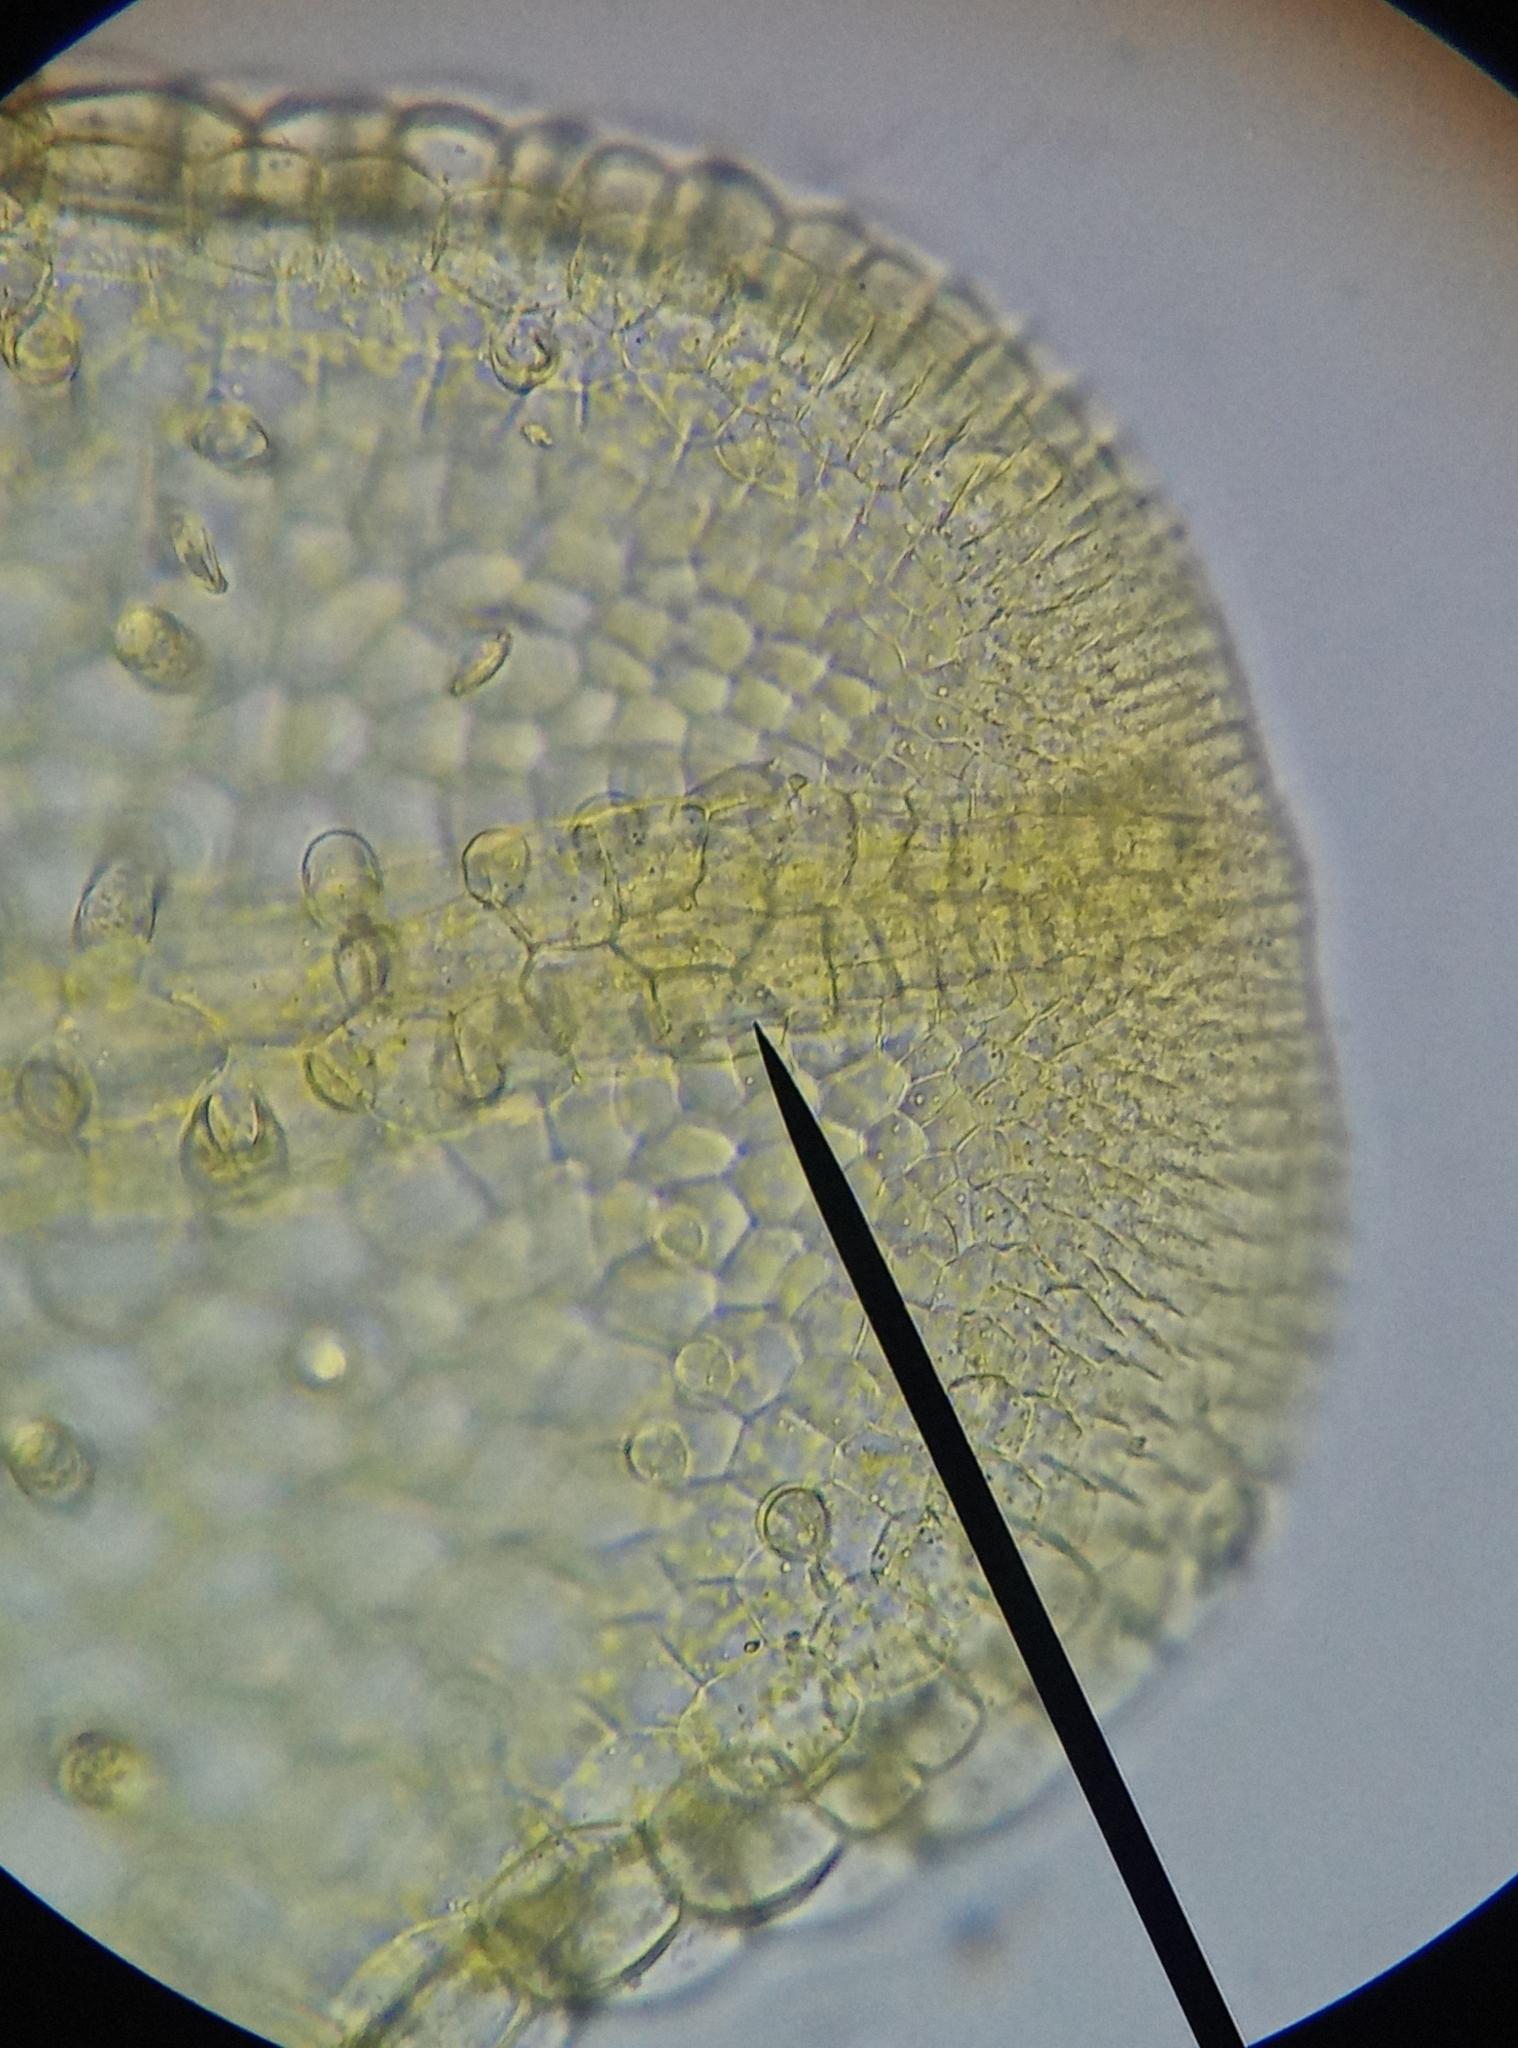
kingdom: Plantae
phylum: Marchantiophyta
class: Jungermanniopsida
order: Metzgeriales
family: Metzgeriaceae
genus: Metzgeria
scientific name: Metzgeria consanguinea
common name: Whiskered veilwort
